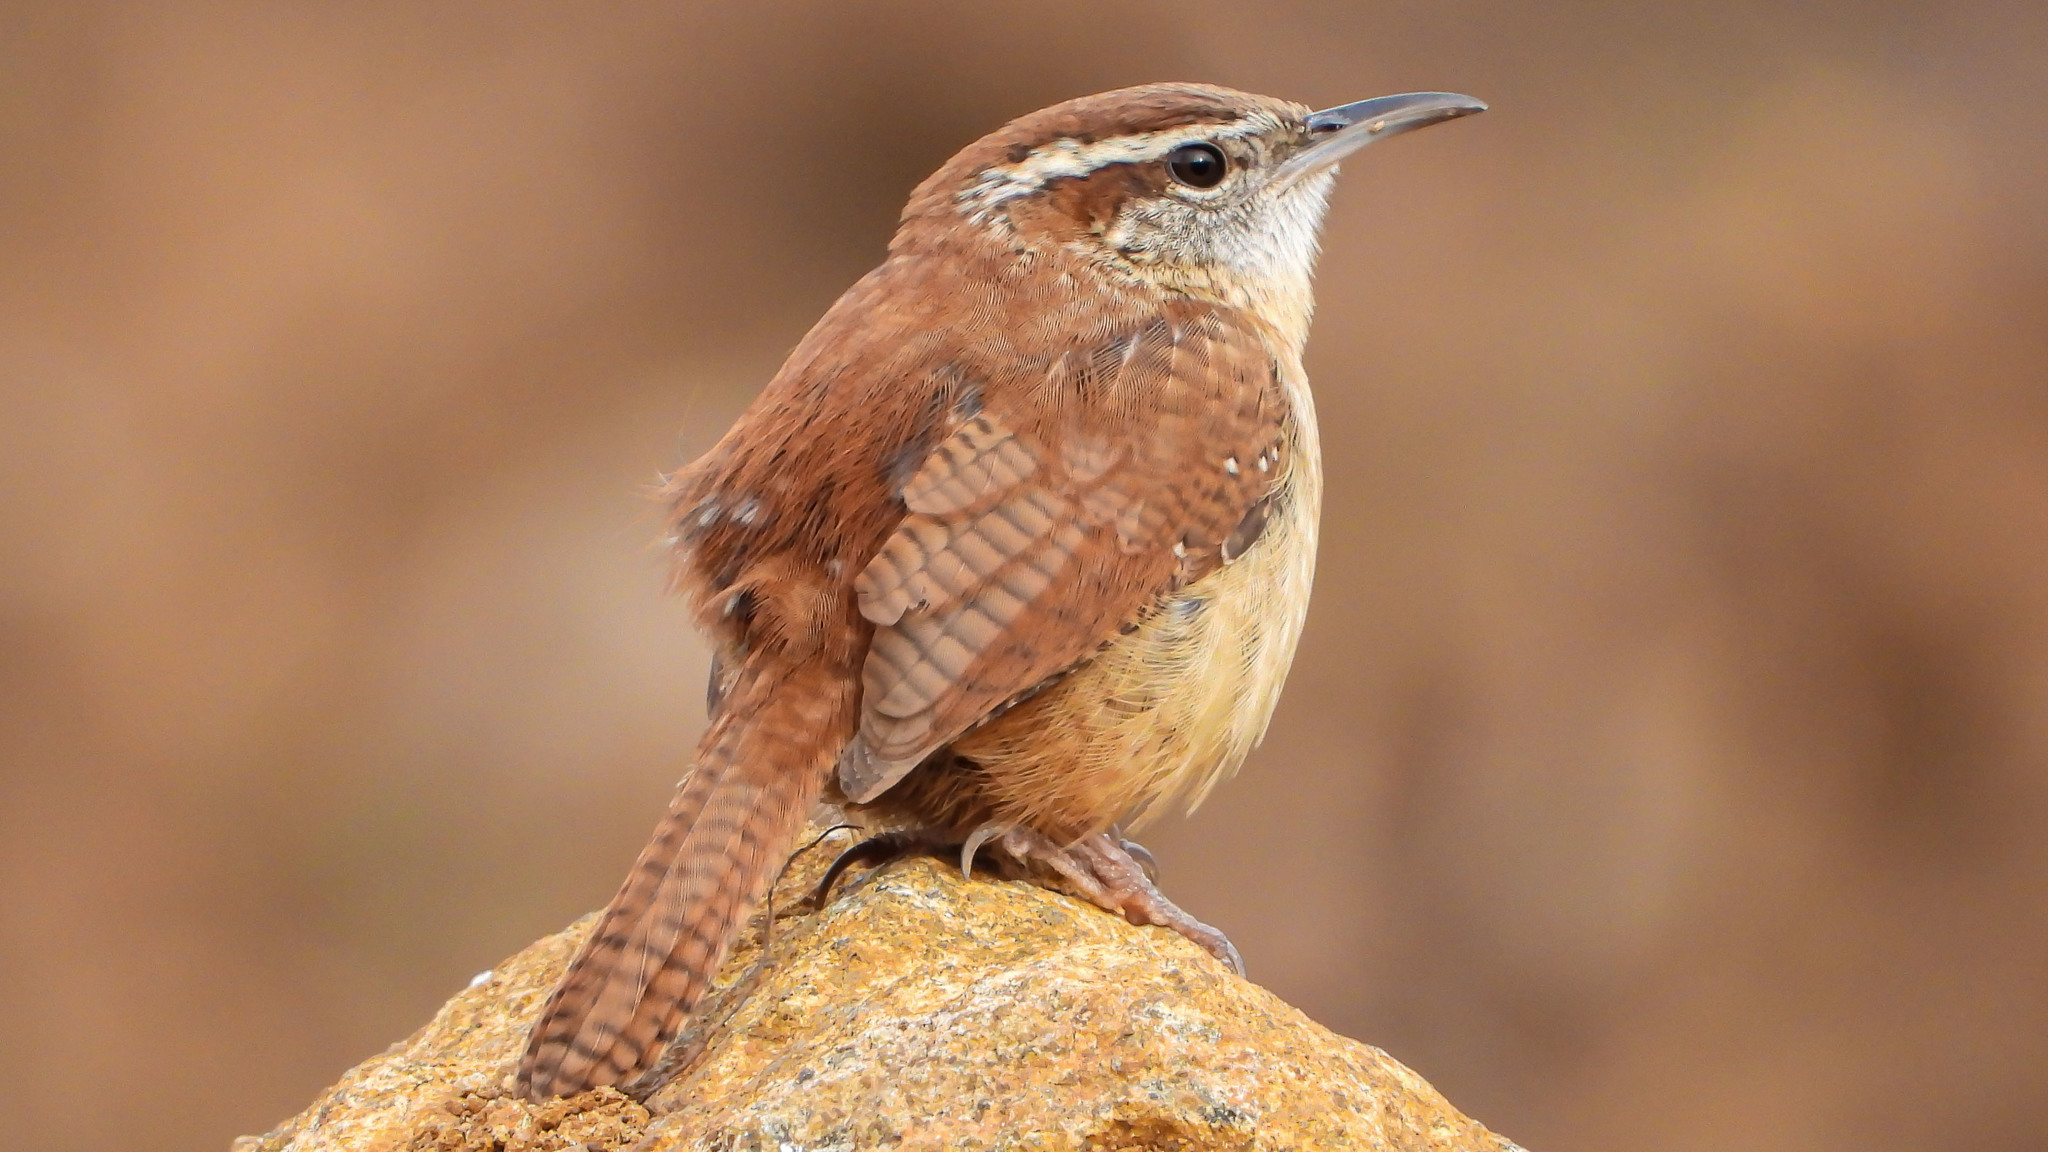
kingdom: Animalia
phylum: Chordata
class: Aves
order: Passeriformes
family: Troglodytidae
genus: Thryothorus
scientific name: Thryothorus ludovicianus
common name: Carolina wren
